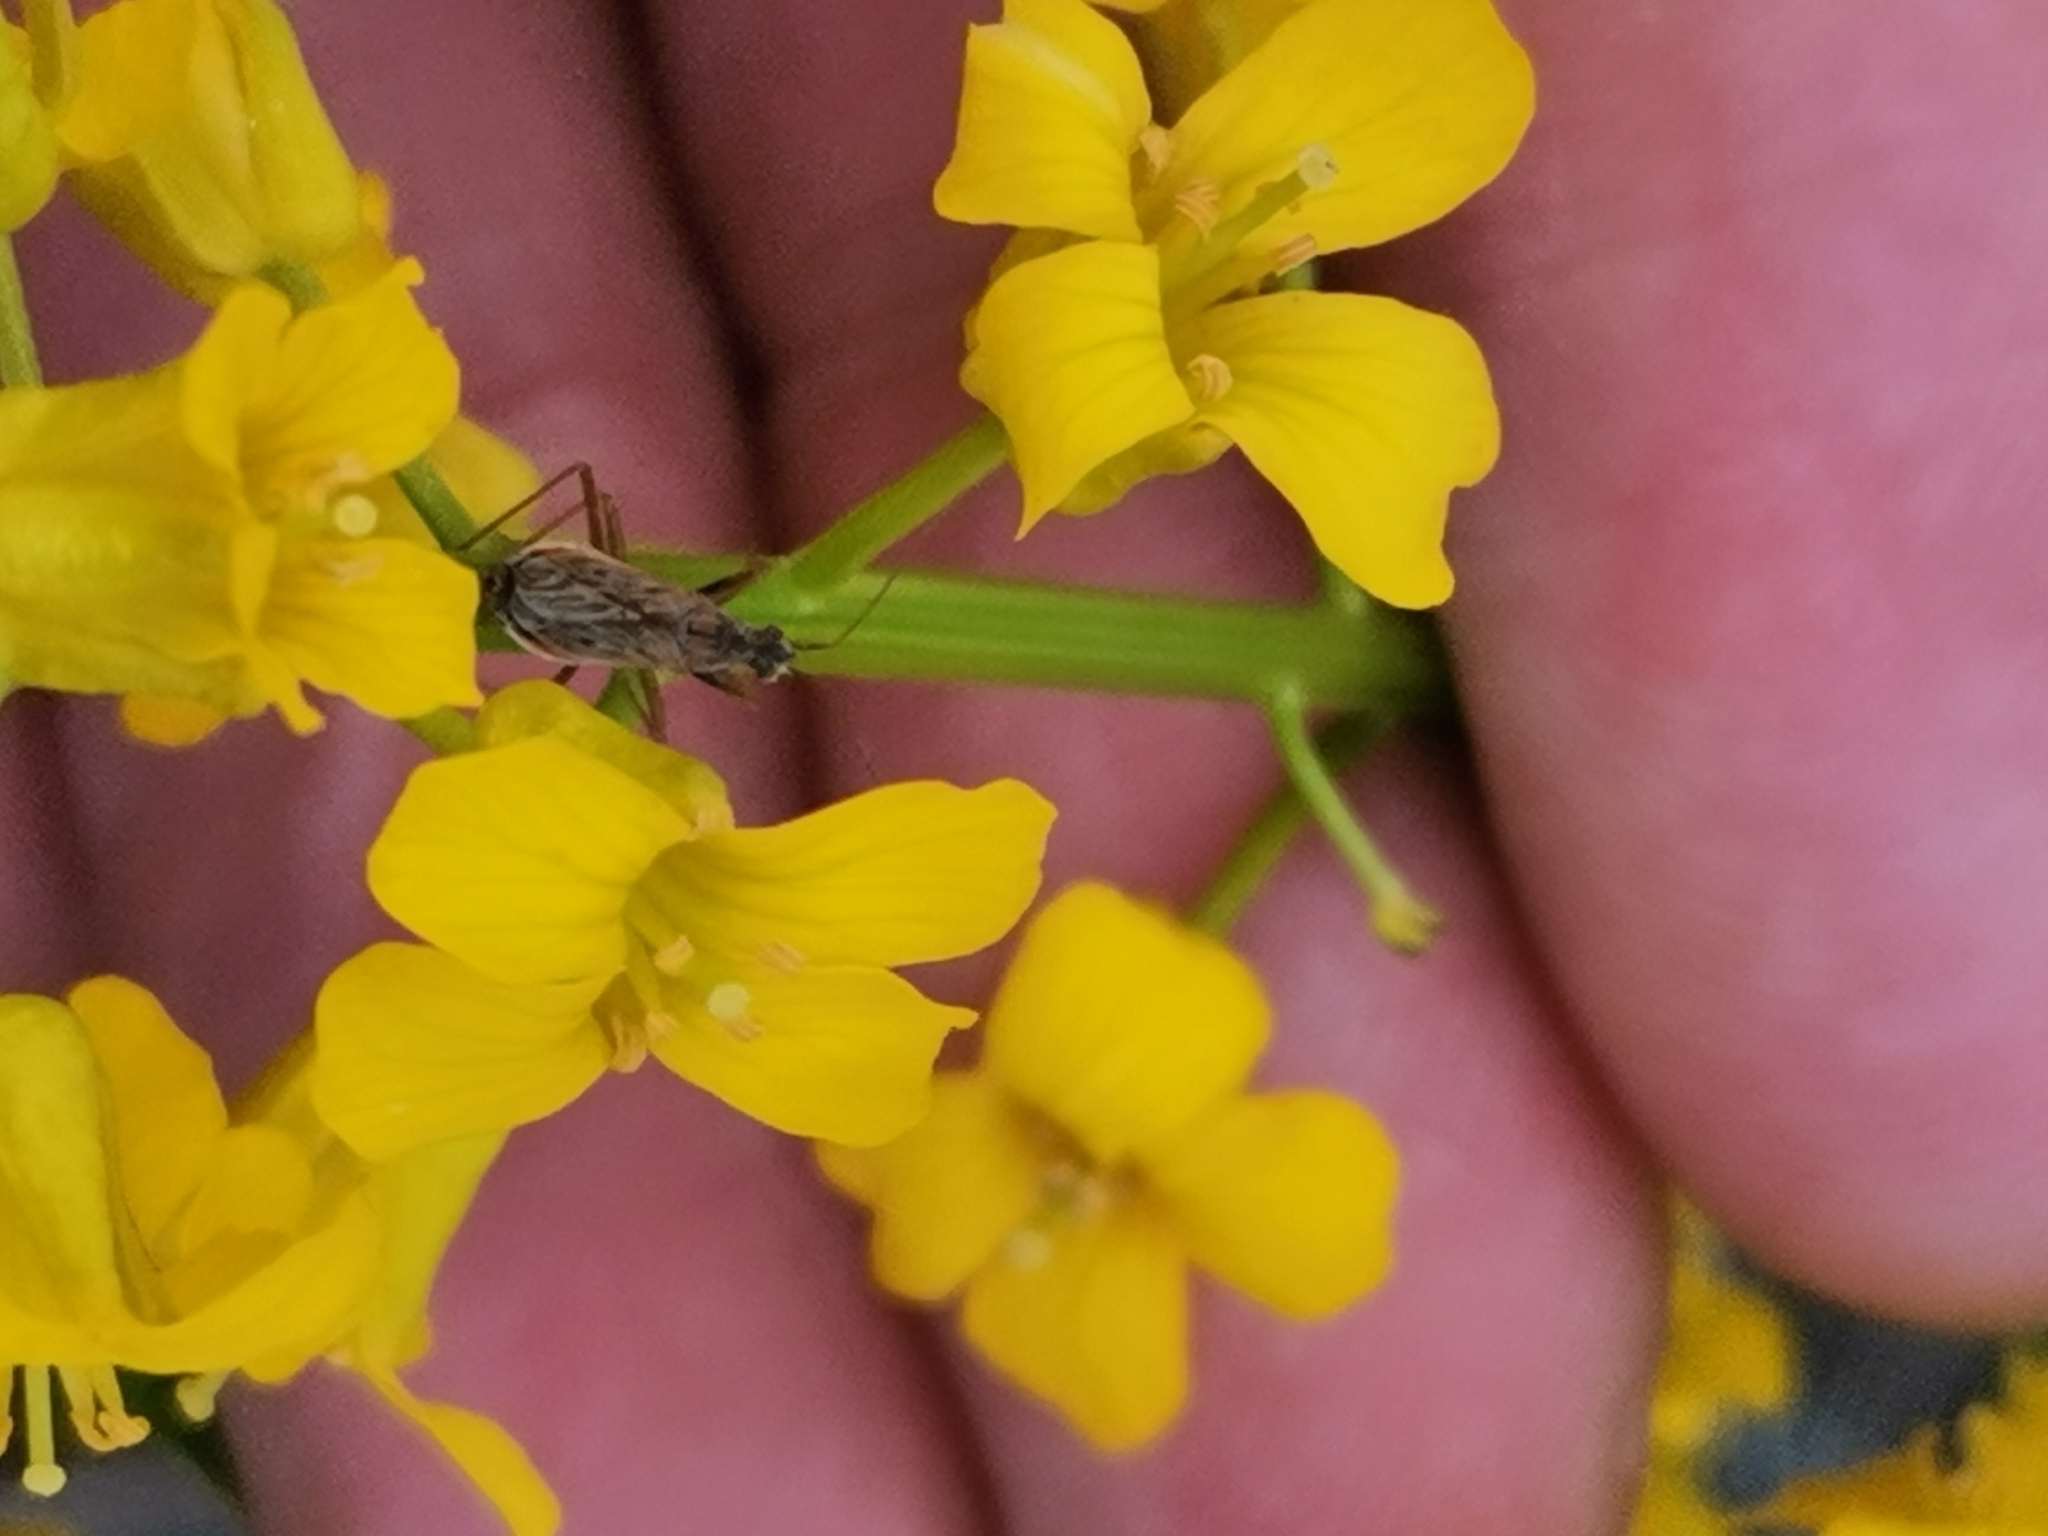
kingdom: Animalia
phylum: Arthropoda
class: Insecta
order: Hemiptera
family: Nabidae
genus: Nabis
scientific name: Nabis brevis
